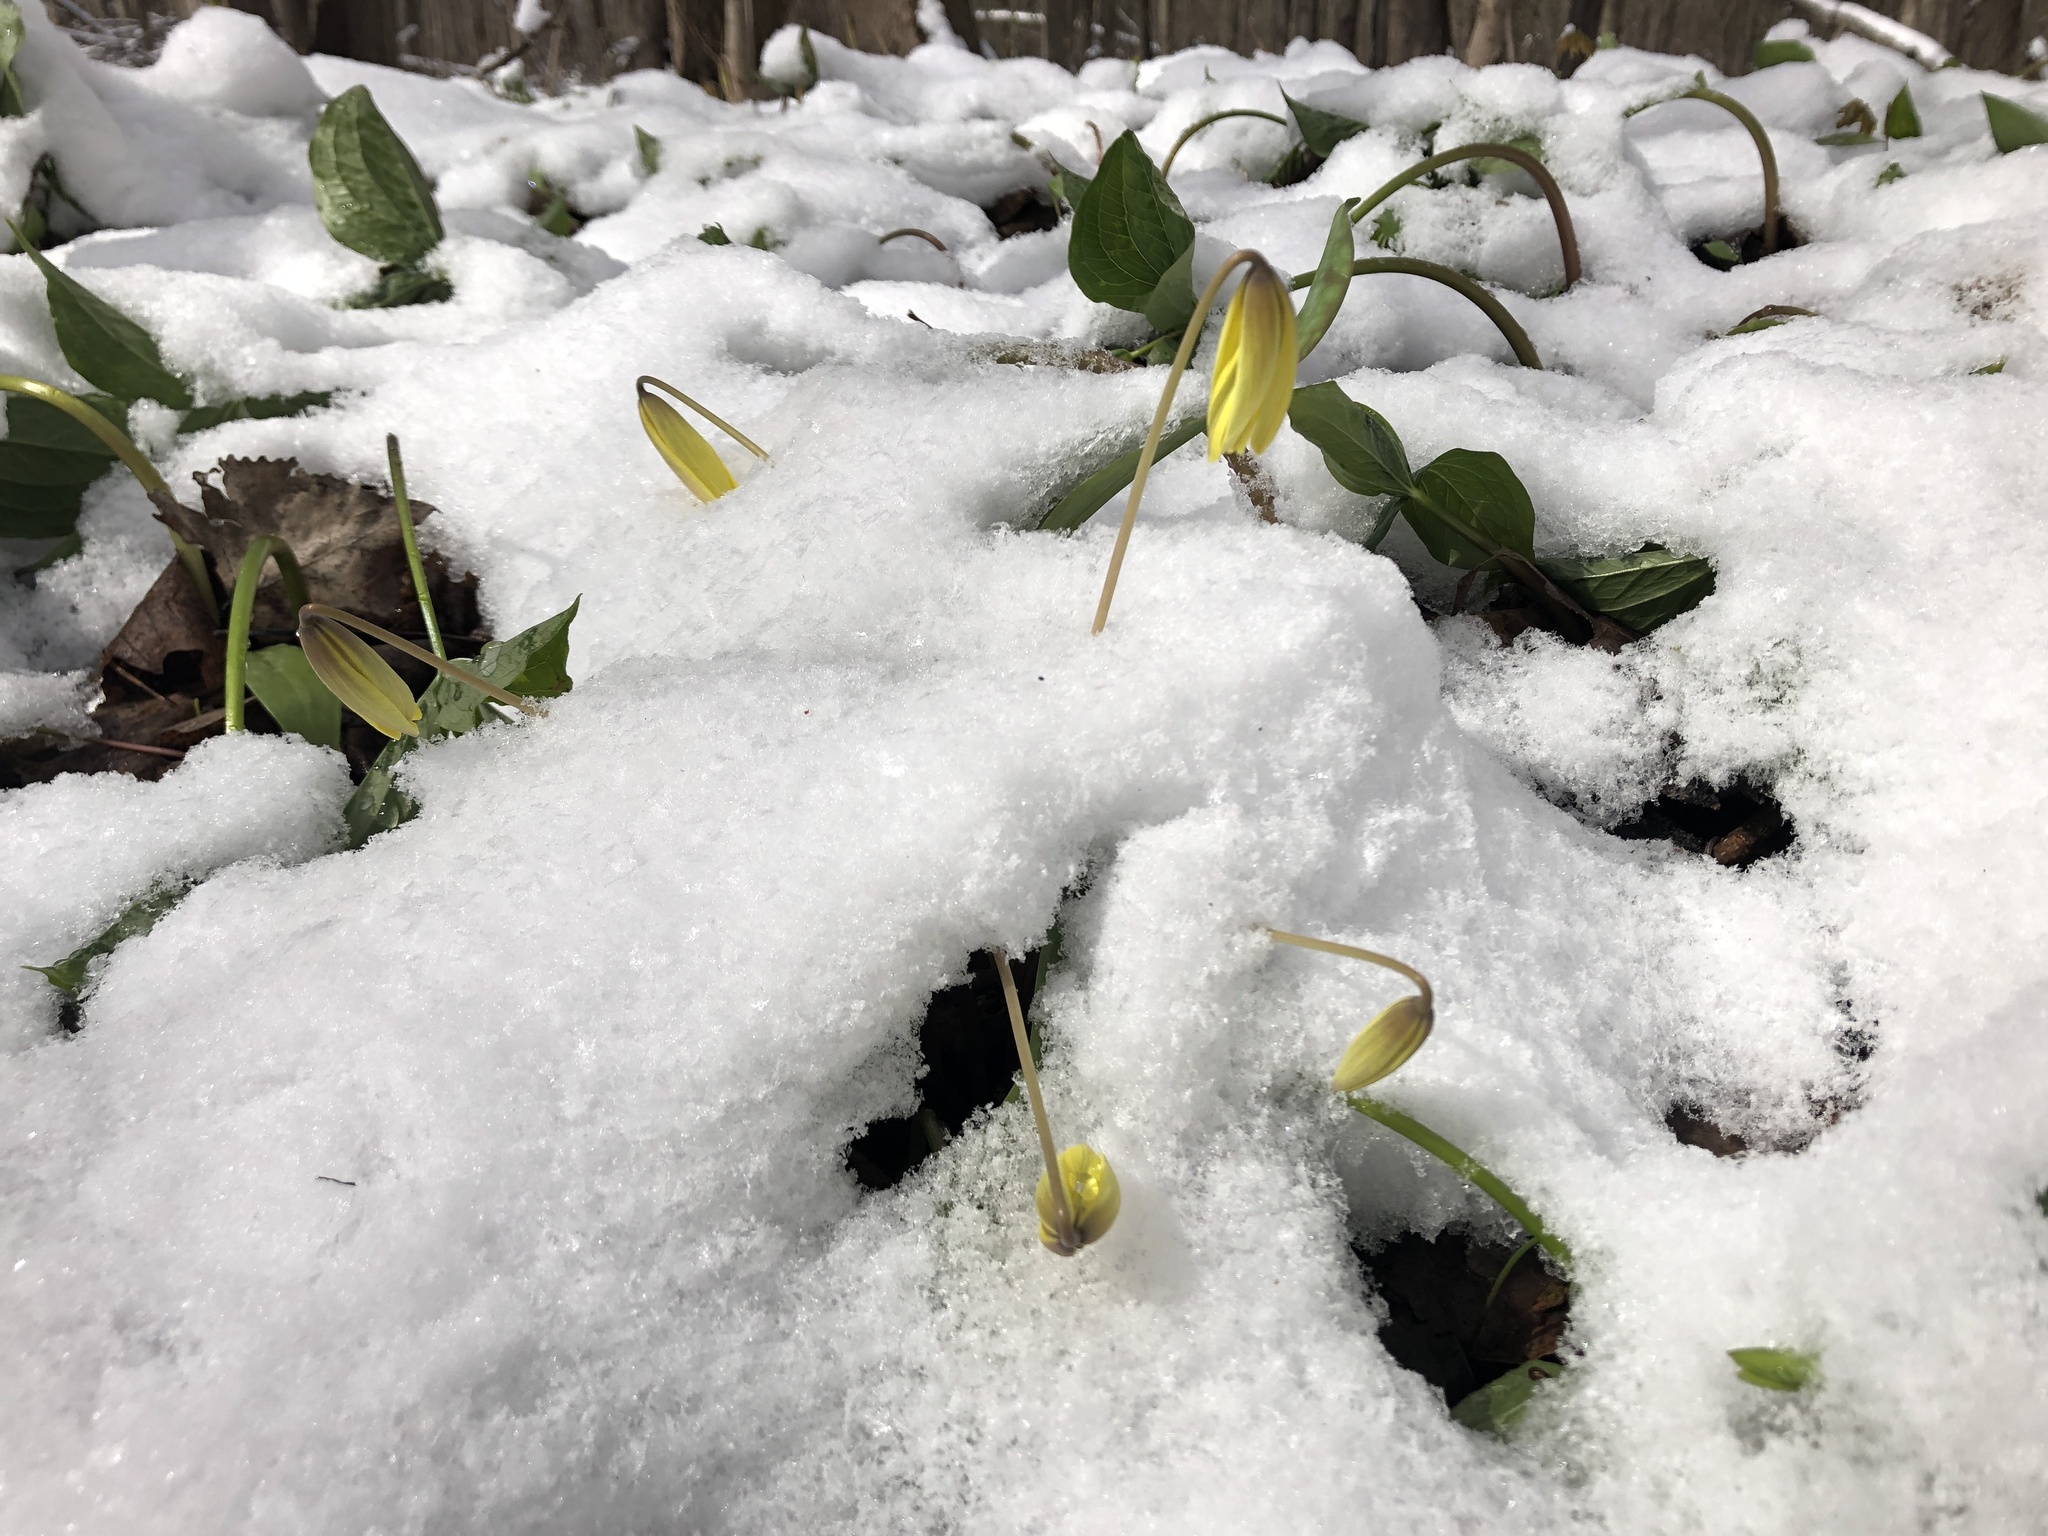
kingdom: Plantae
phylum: Tracheophyta
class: Liliopsida
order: Liliales
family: Liliaceae
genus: Erythronium
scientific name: Erythronium americanum
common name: Yellow adder's-tongue
